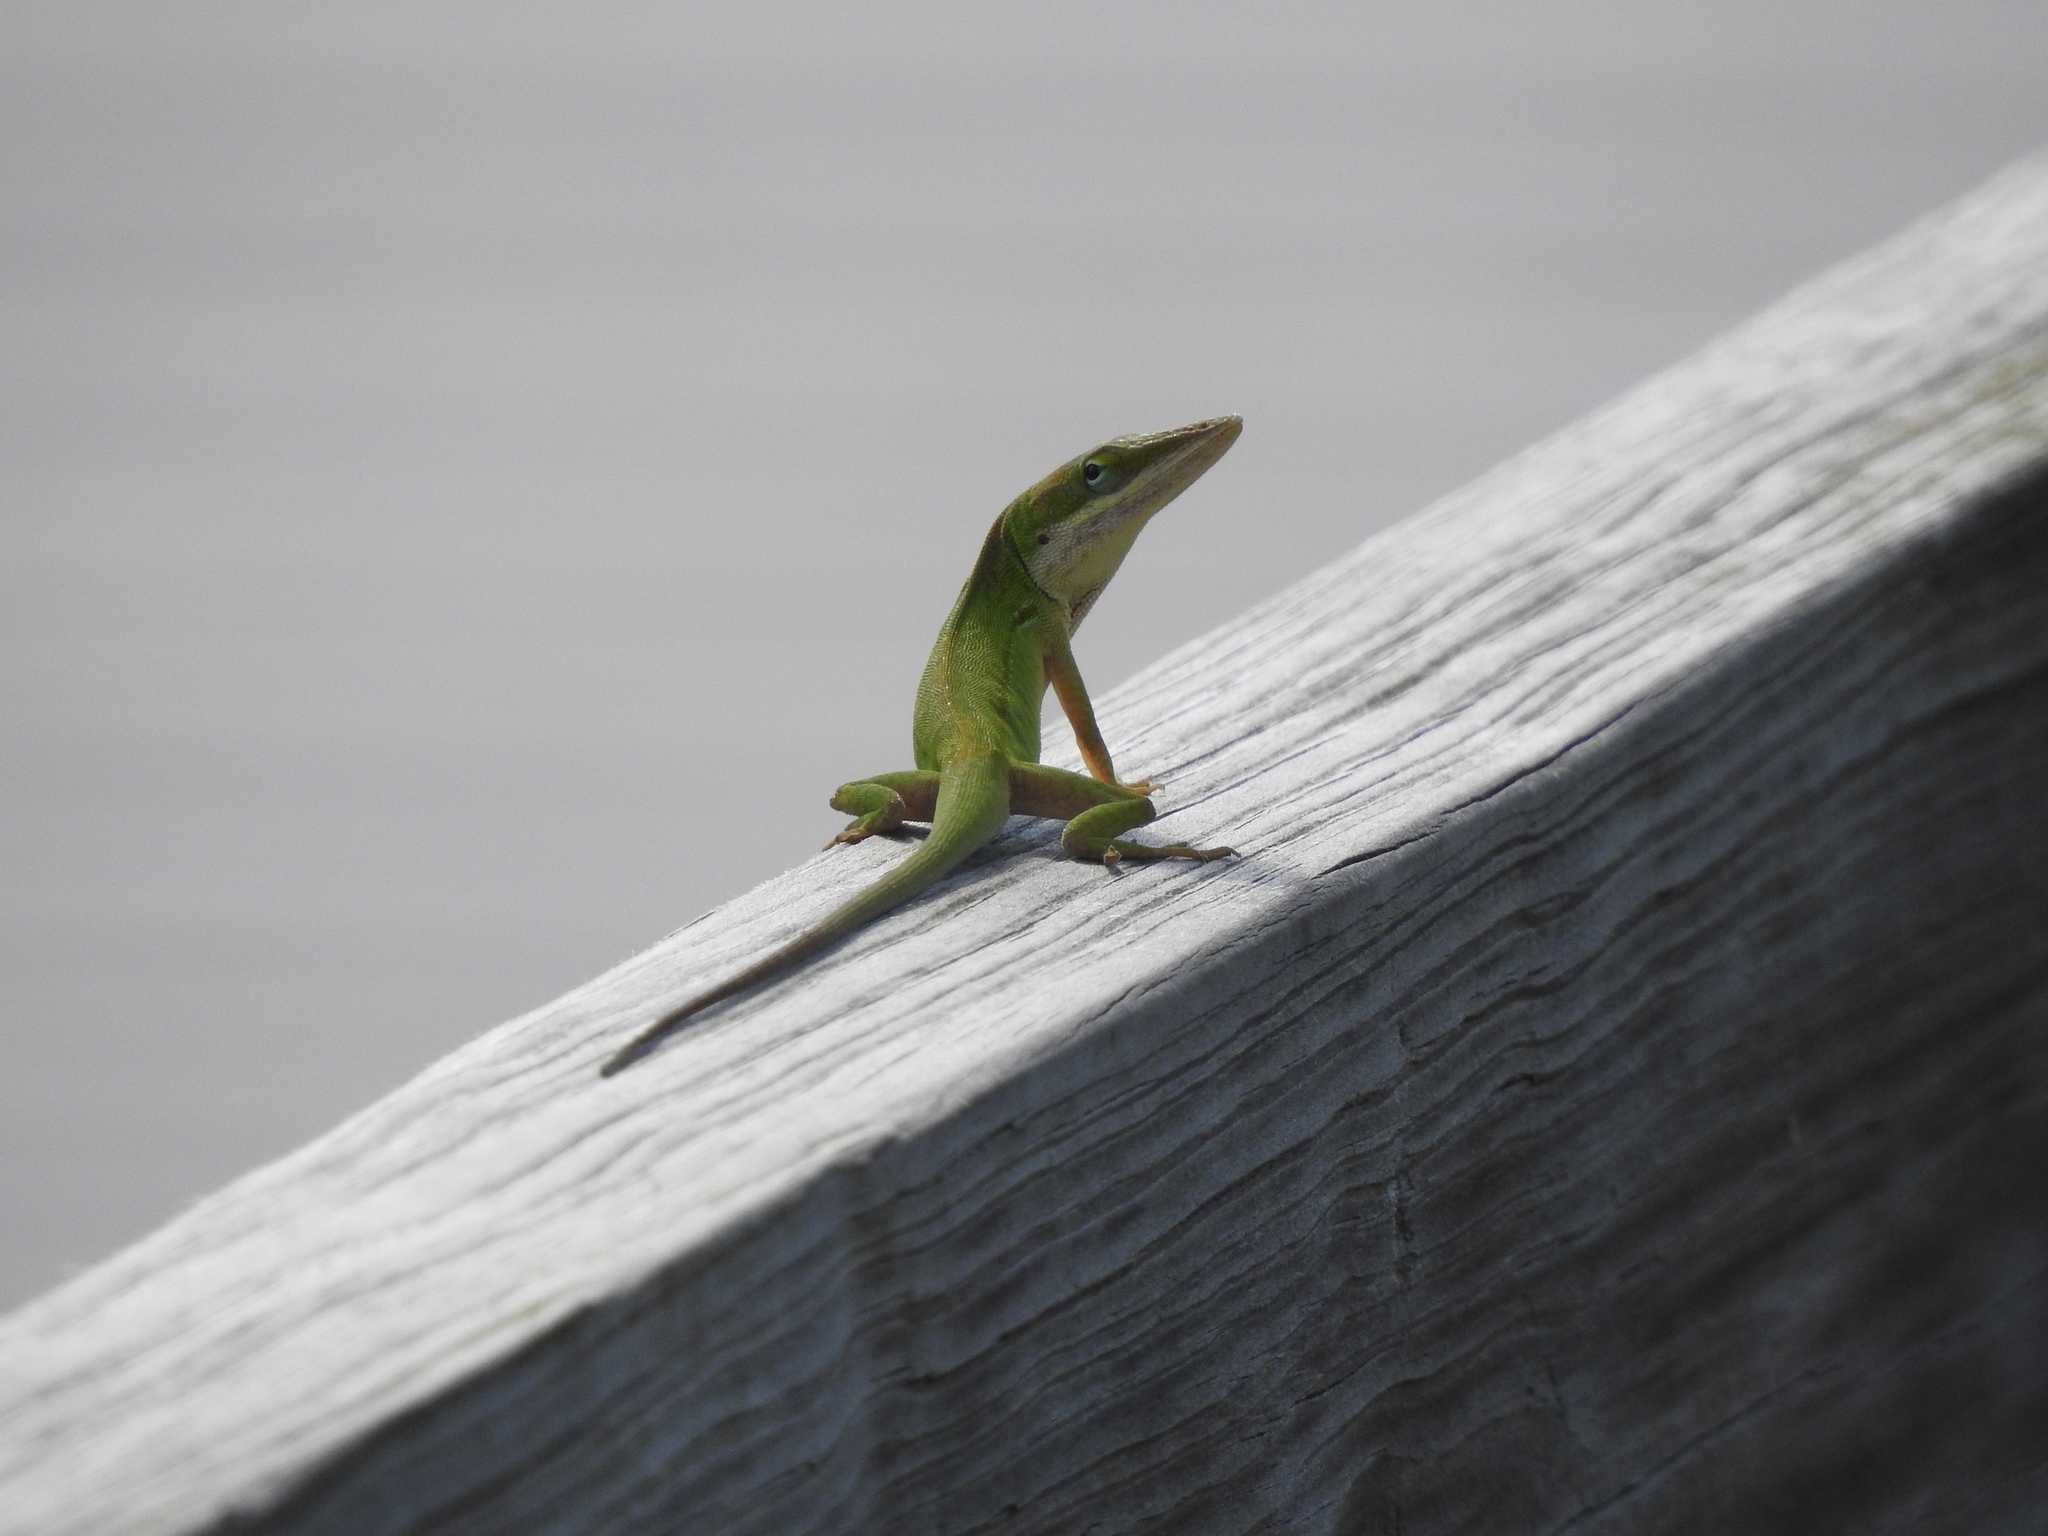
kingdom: Animalia
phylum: Chordata
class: Squamata
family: Dactyloidae
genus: Anolis
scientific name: Anolis carolinensis
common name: Green anole
